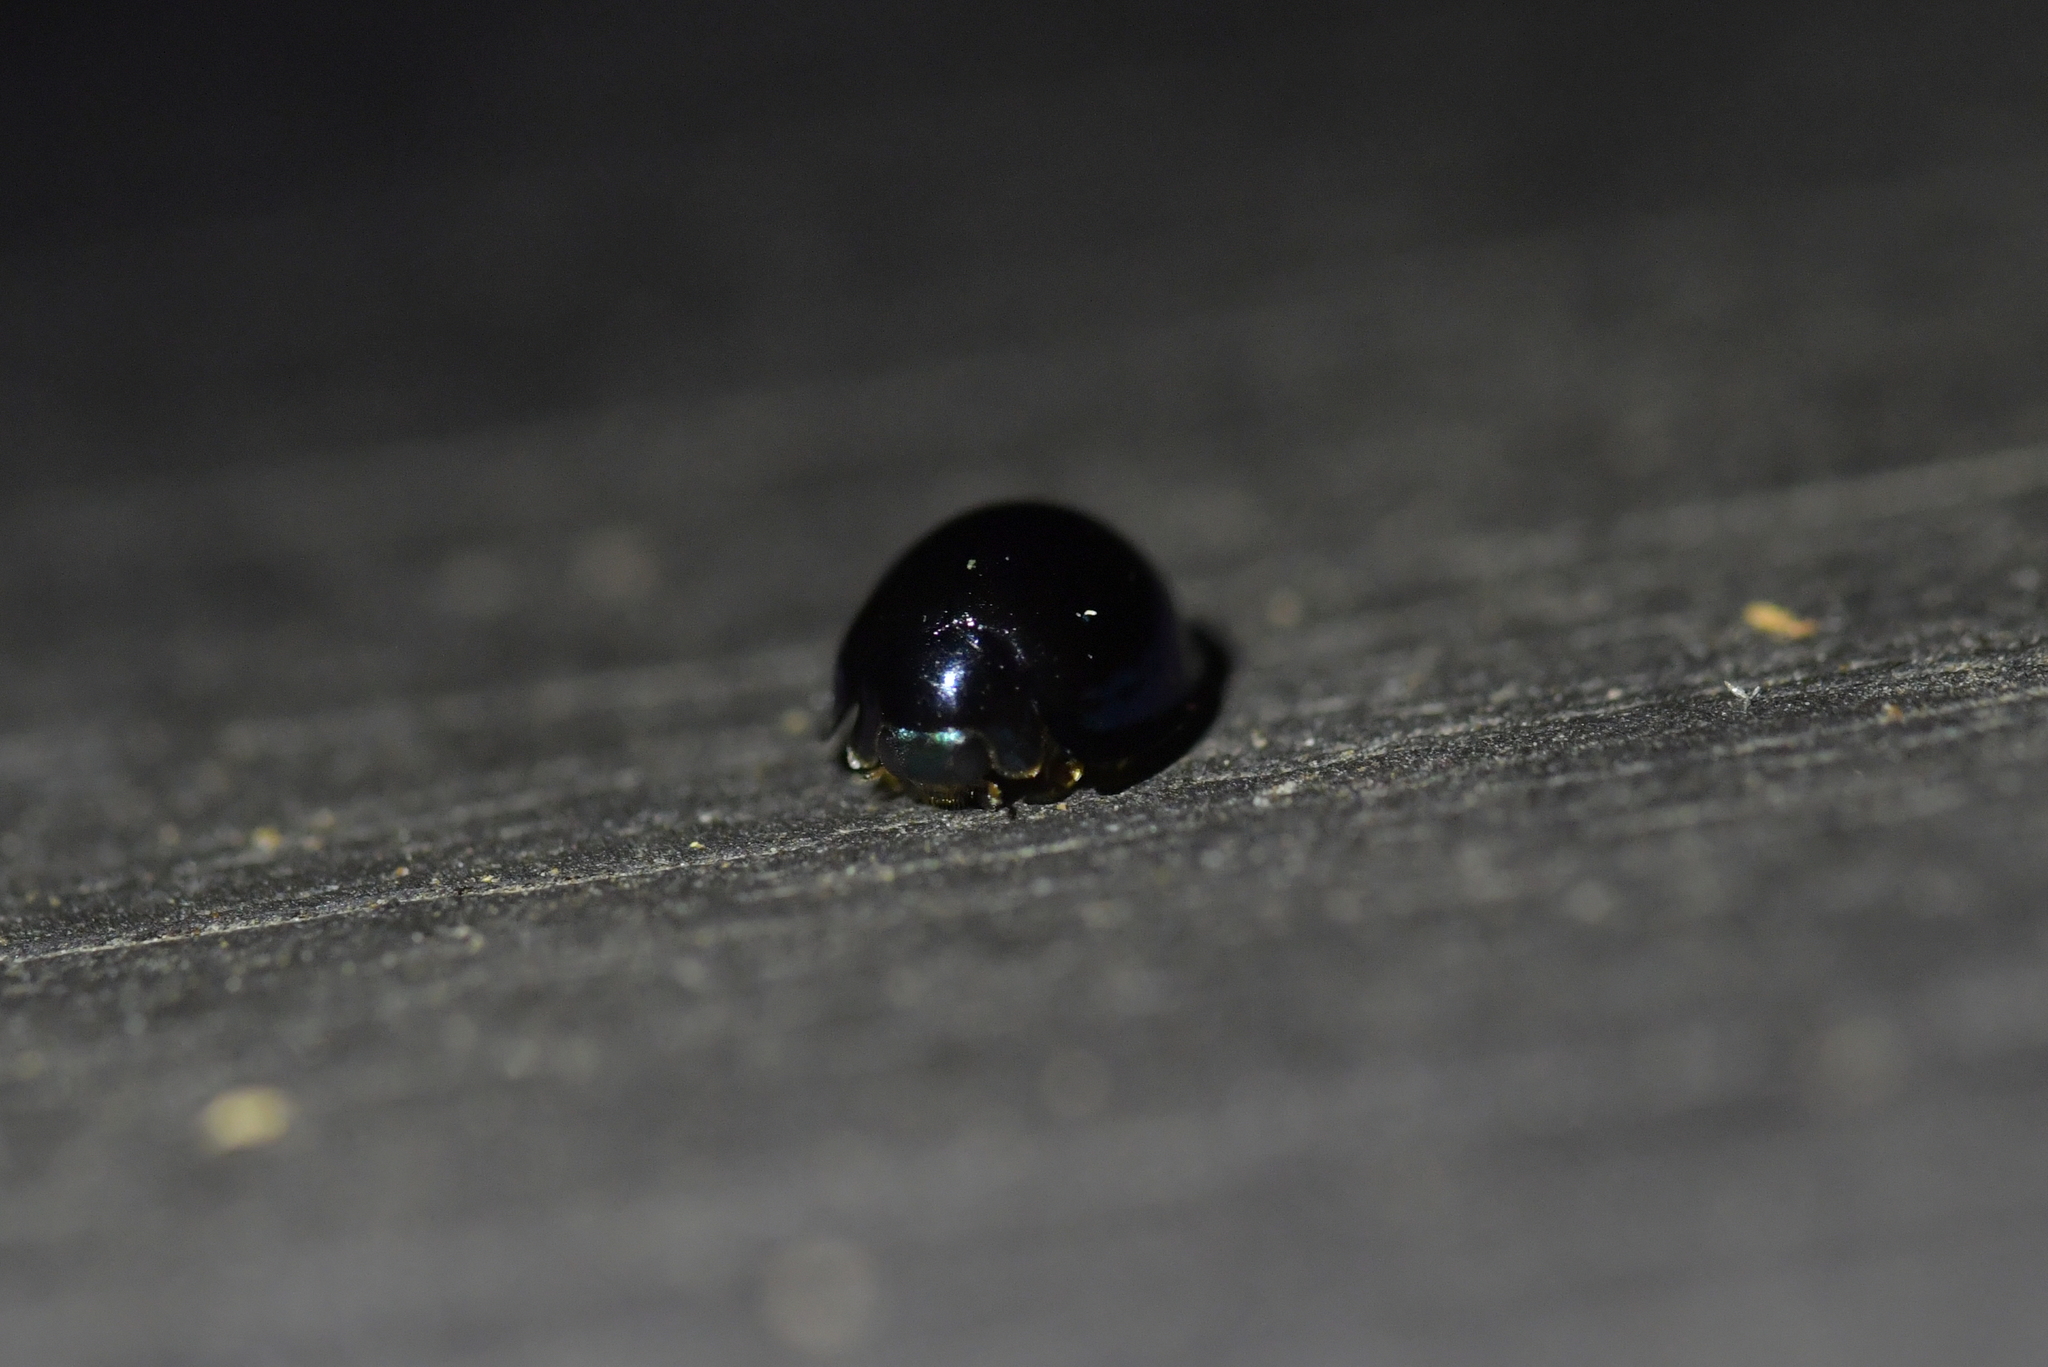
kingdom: Animalia
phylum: Arthropoda
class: Insecta
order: Coleoptera
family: Coccinellidae
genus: Halmus
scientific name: Halmus chalybeus
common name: Steel blue ladybird beetle
